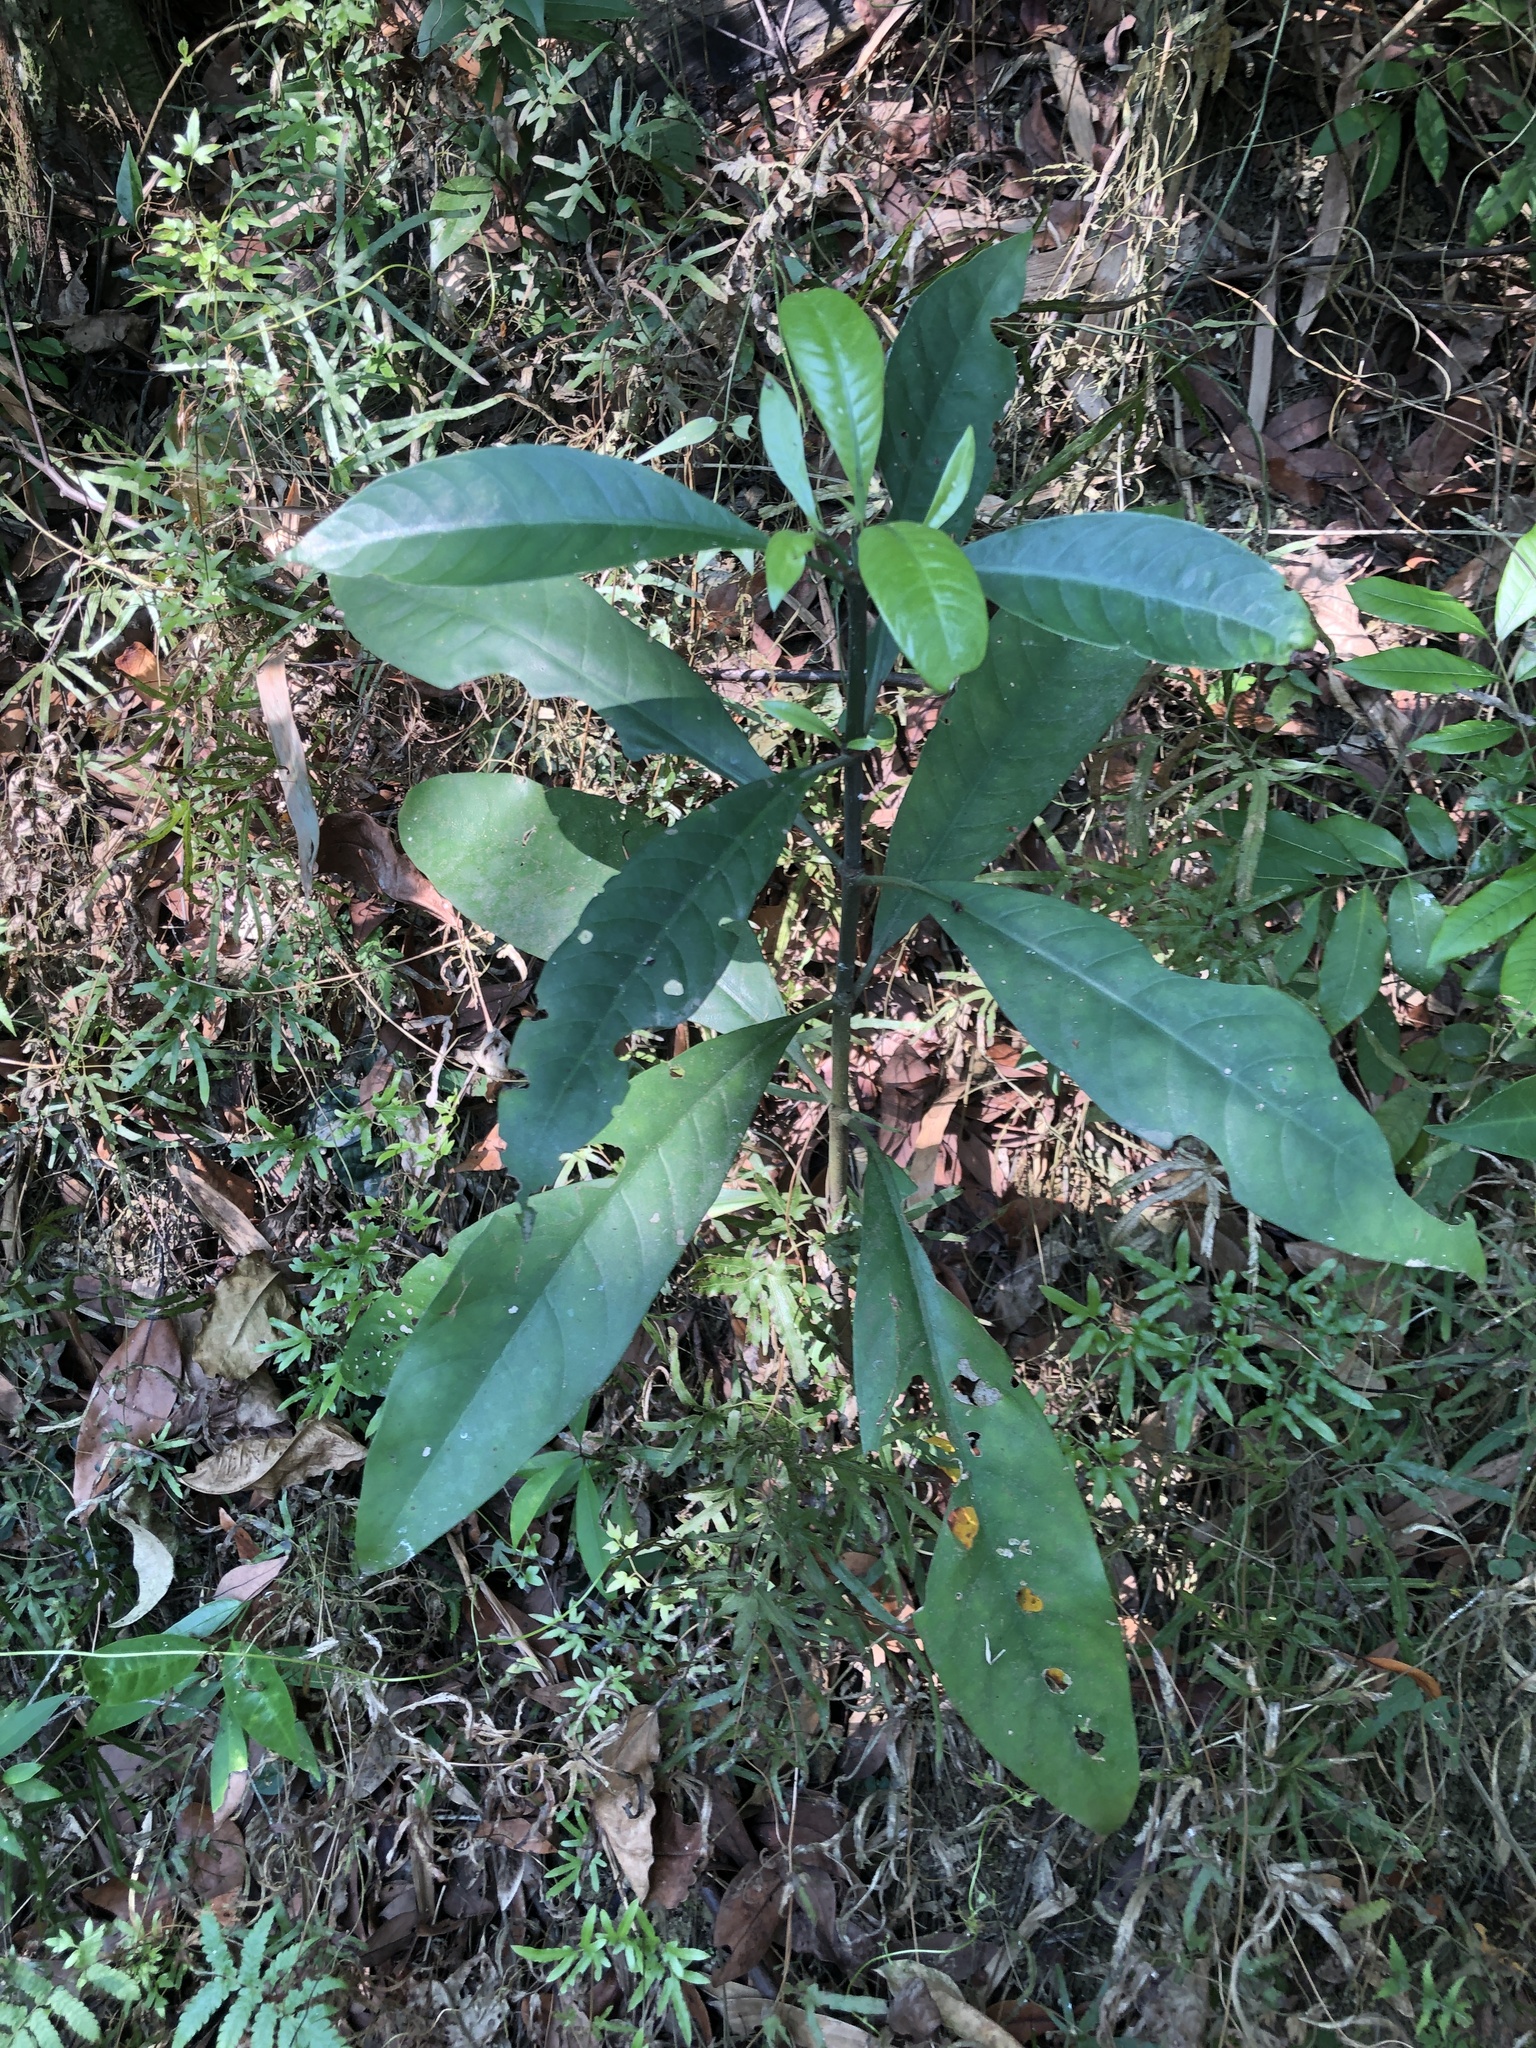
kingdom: Plantae
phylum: Tracheophyta
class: Magnoliopsida
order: Gentianales
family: Rubiaceae
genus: Psychotria
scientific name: Psychotria asiatica
